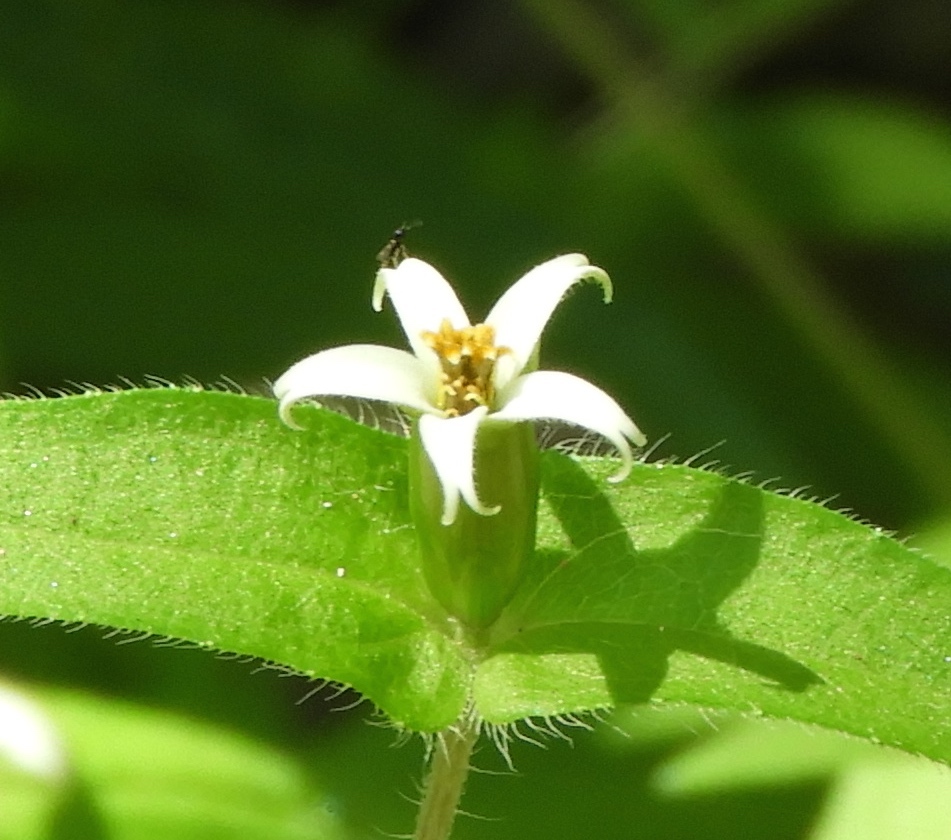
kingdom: Plantae
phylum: Tracheophyta
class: Magnoliopsida
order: Asterales
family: Asteraceae
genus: Zinnia
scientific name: Zinnia zinnioides
